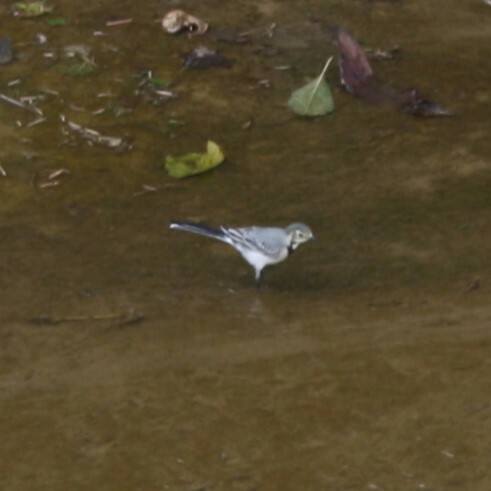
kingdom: Animalia
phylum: Chordata
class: Aves
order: Passeriformes
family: Motacillidae
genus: Motacilla
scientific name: Motacilla alba
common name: White wagtail
